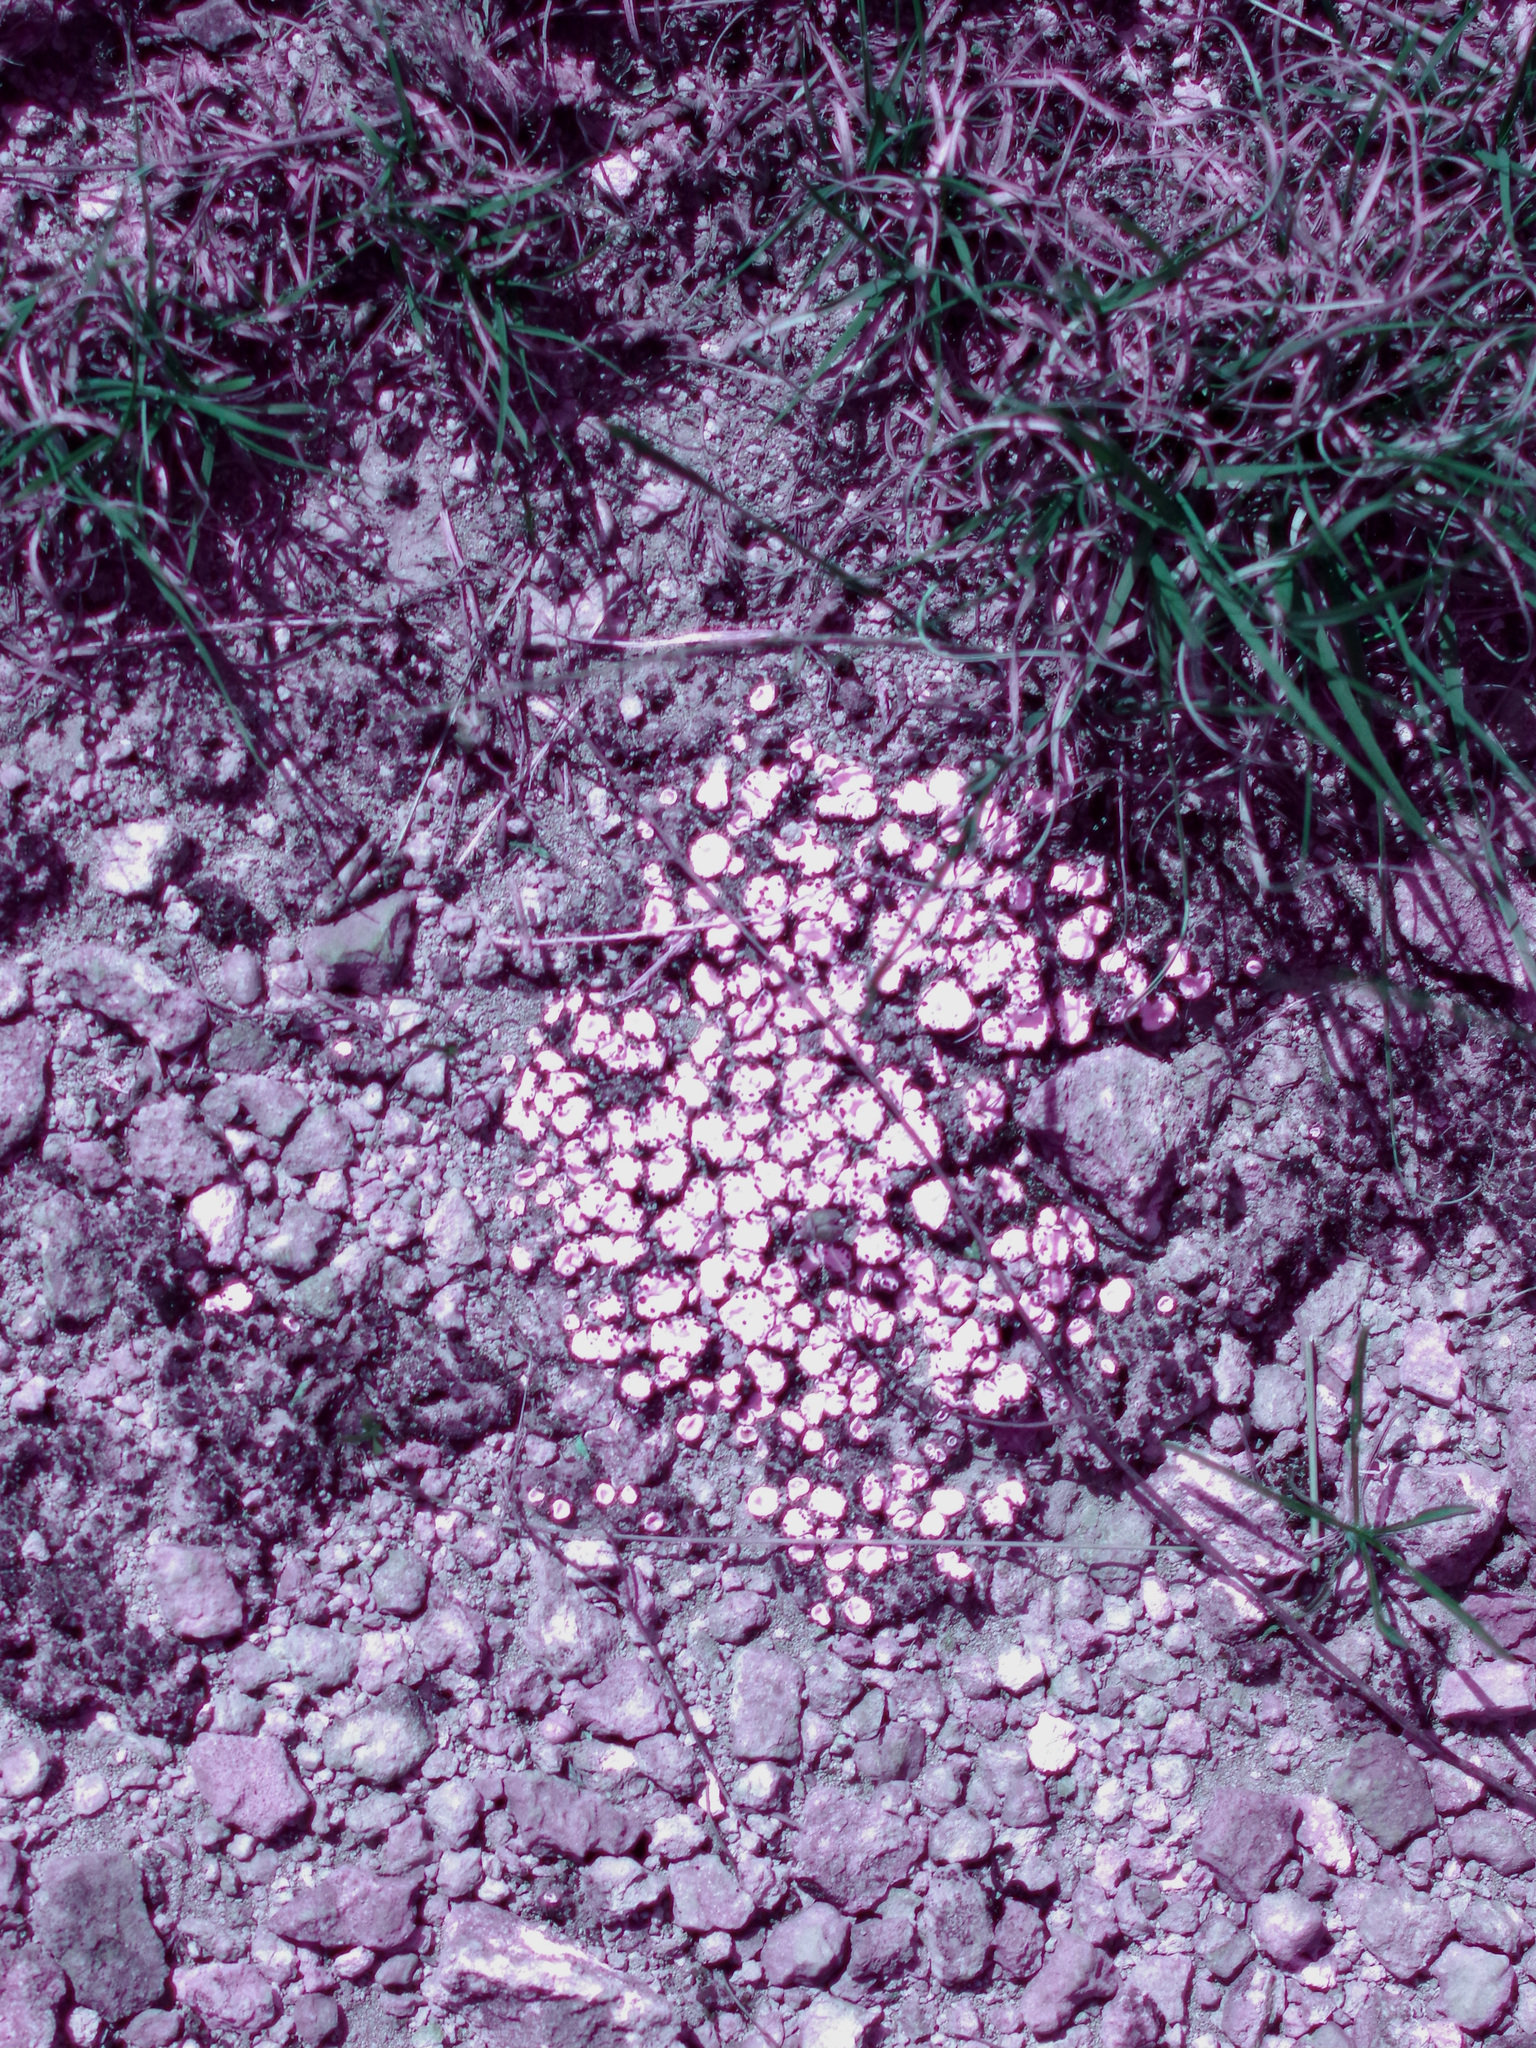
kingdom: Fungi
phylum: Ascomycota
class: Lecanoromycetes
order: Lecanorales
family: Psoraceae
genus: Psora
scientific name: Psora crenata
